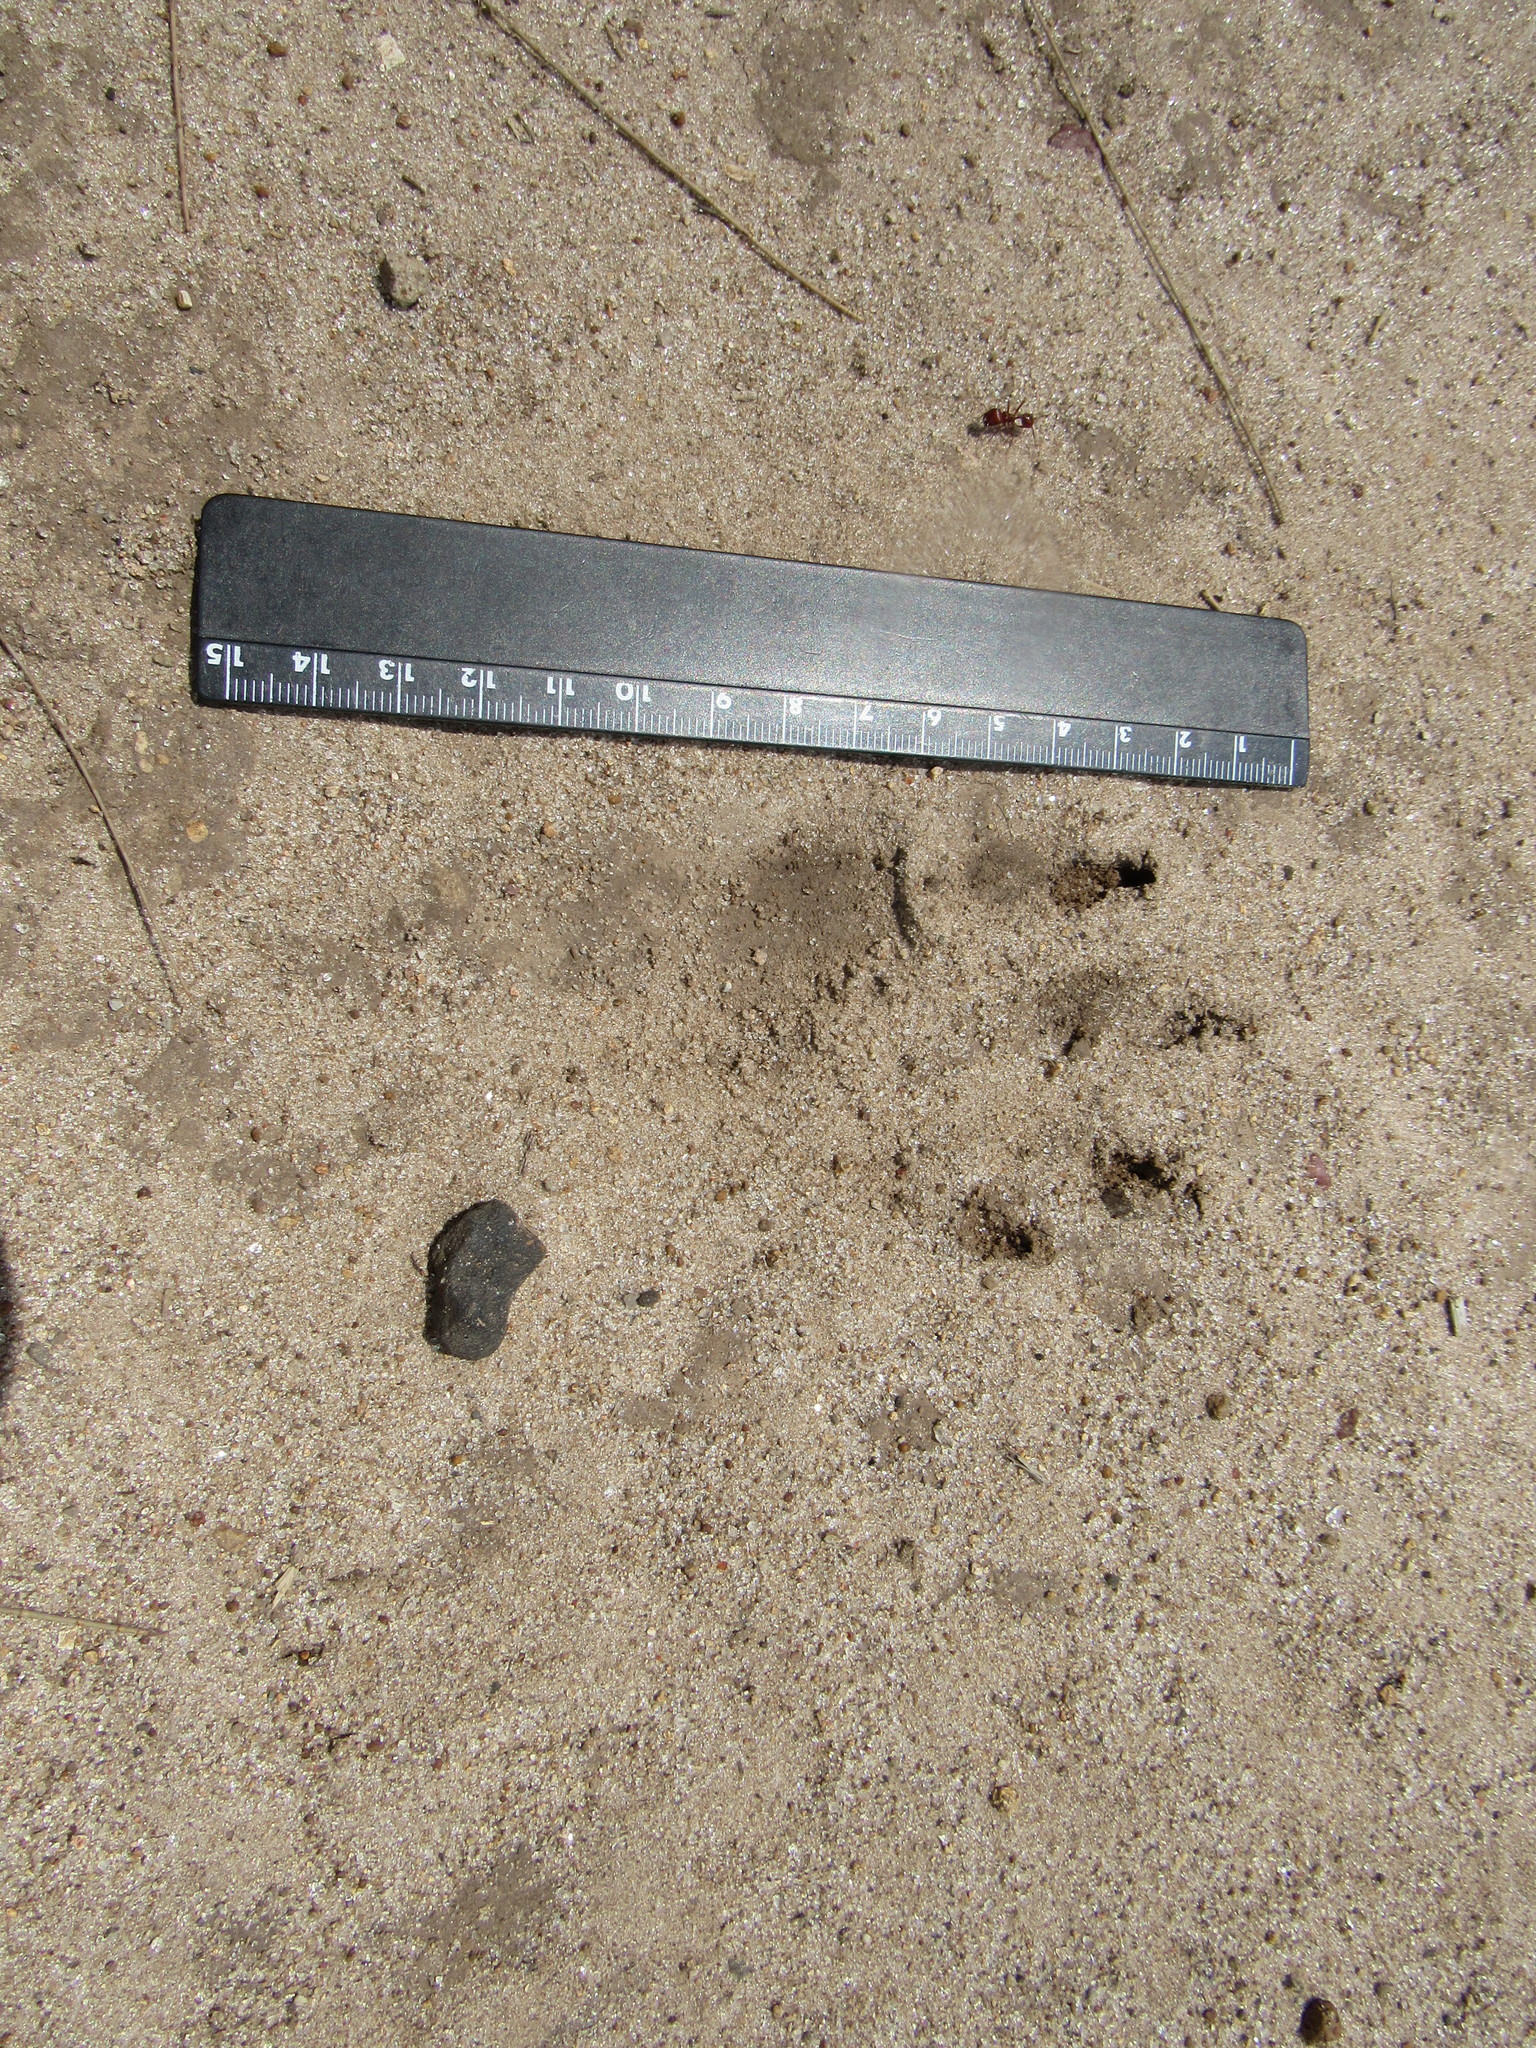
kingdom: Animalia
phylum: Chordata
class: Mammalia
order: Carnivora
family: Procyonidae
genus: Procyon
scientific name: Procyon lotor
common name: Raccoon
